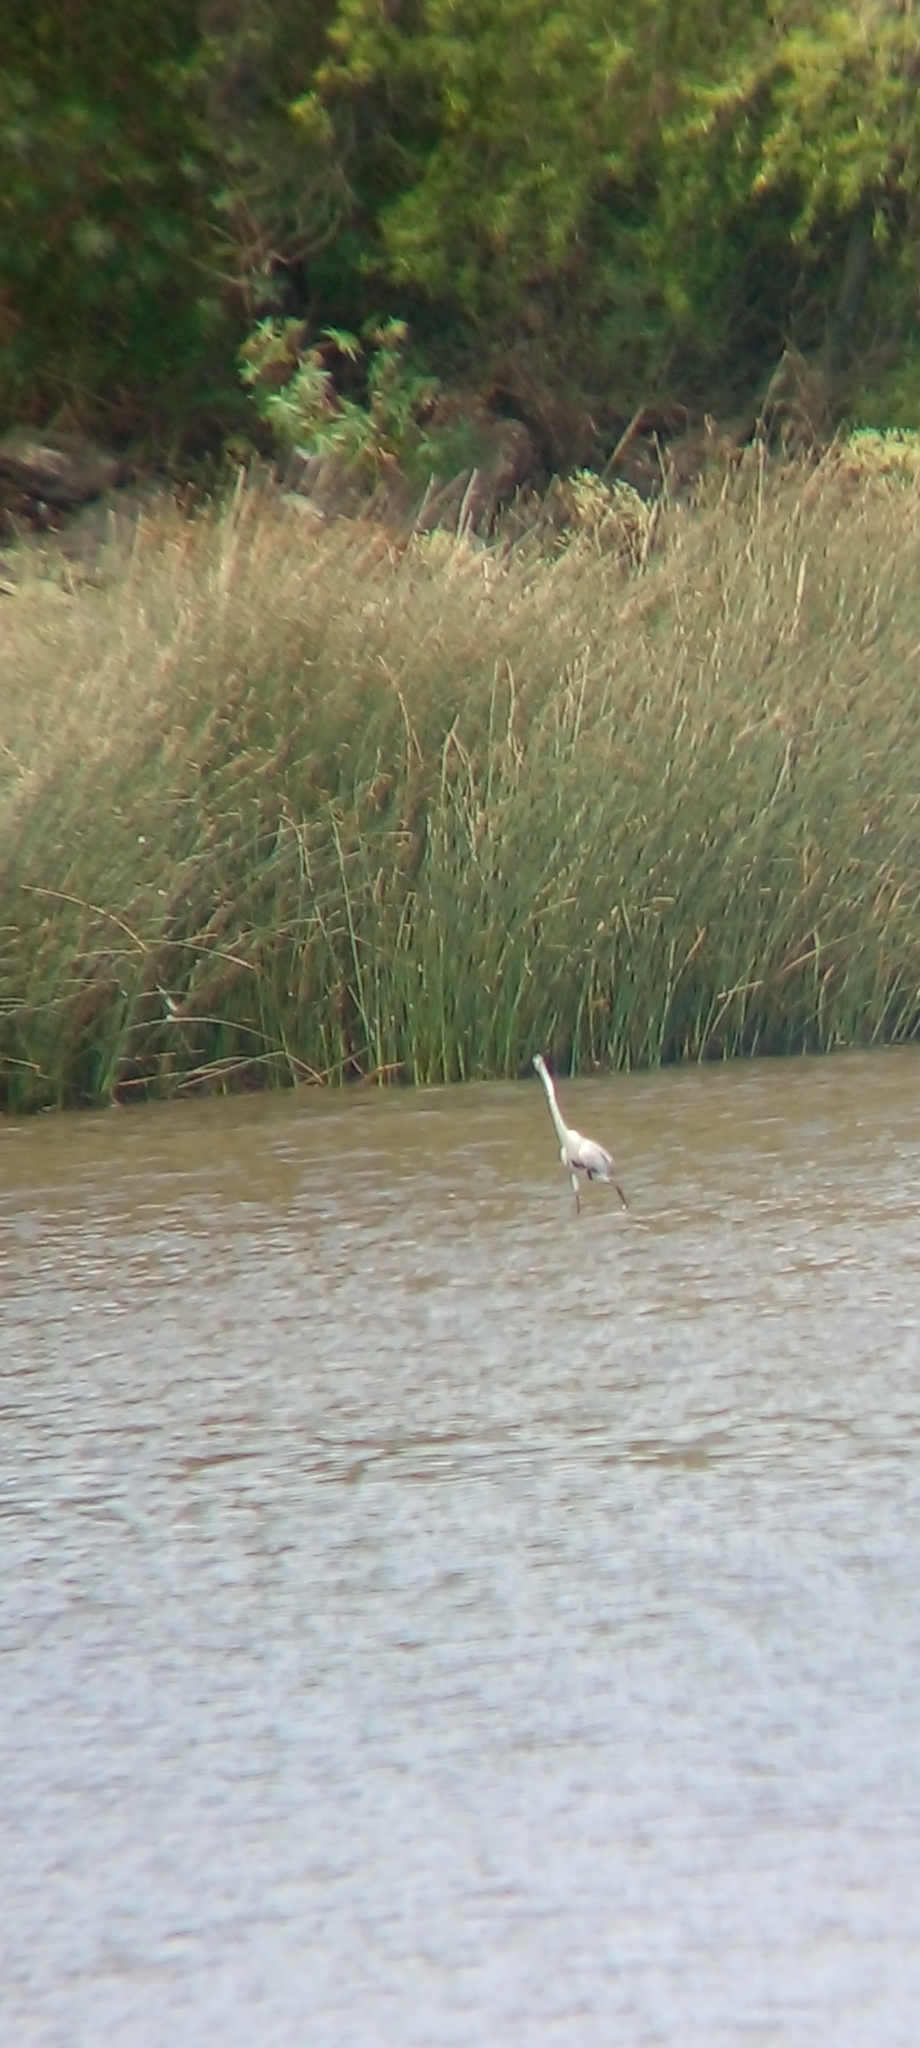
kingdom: Animalia
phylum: Chordata
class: Aves
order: Pelecaniformes
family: Ardeidae
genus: Ardea
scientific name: Ardea cocoi
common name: Cocoi heron
